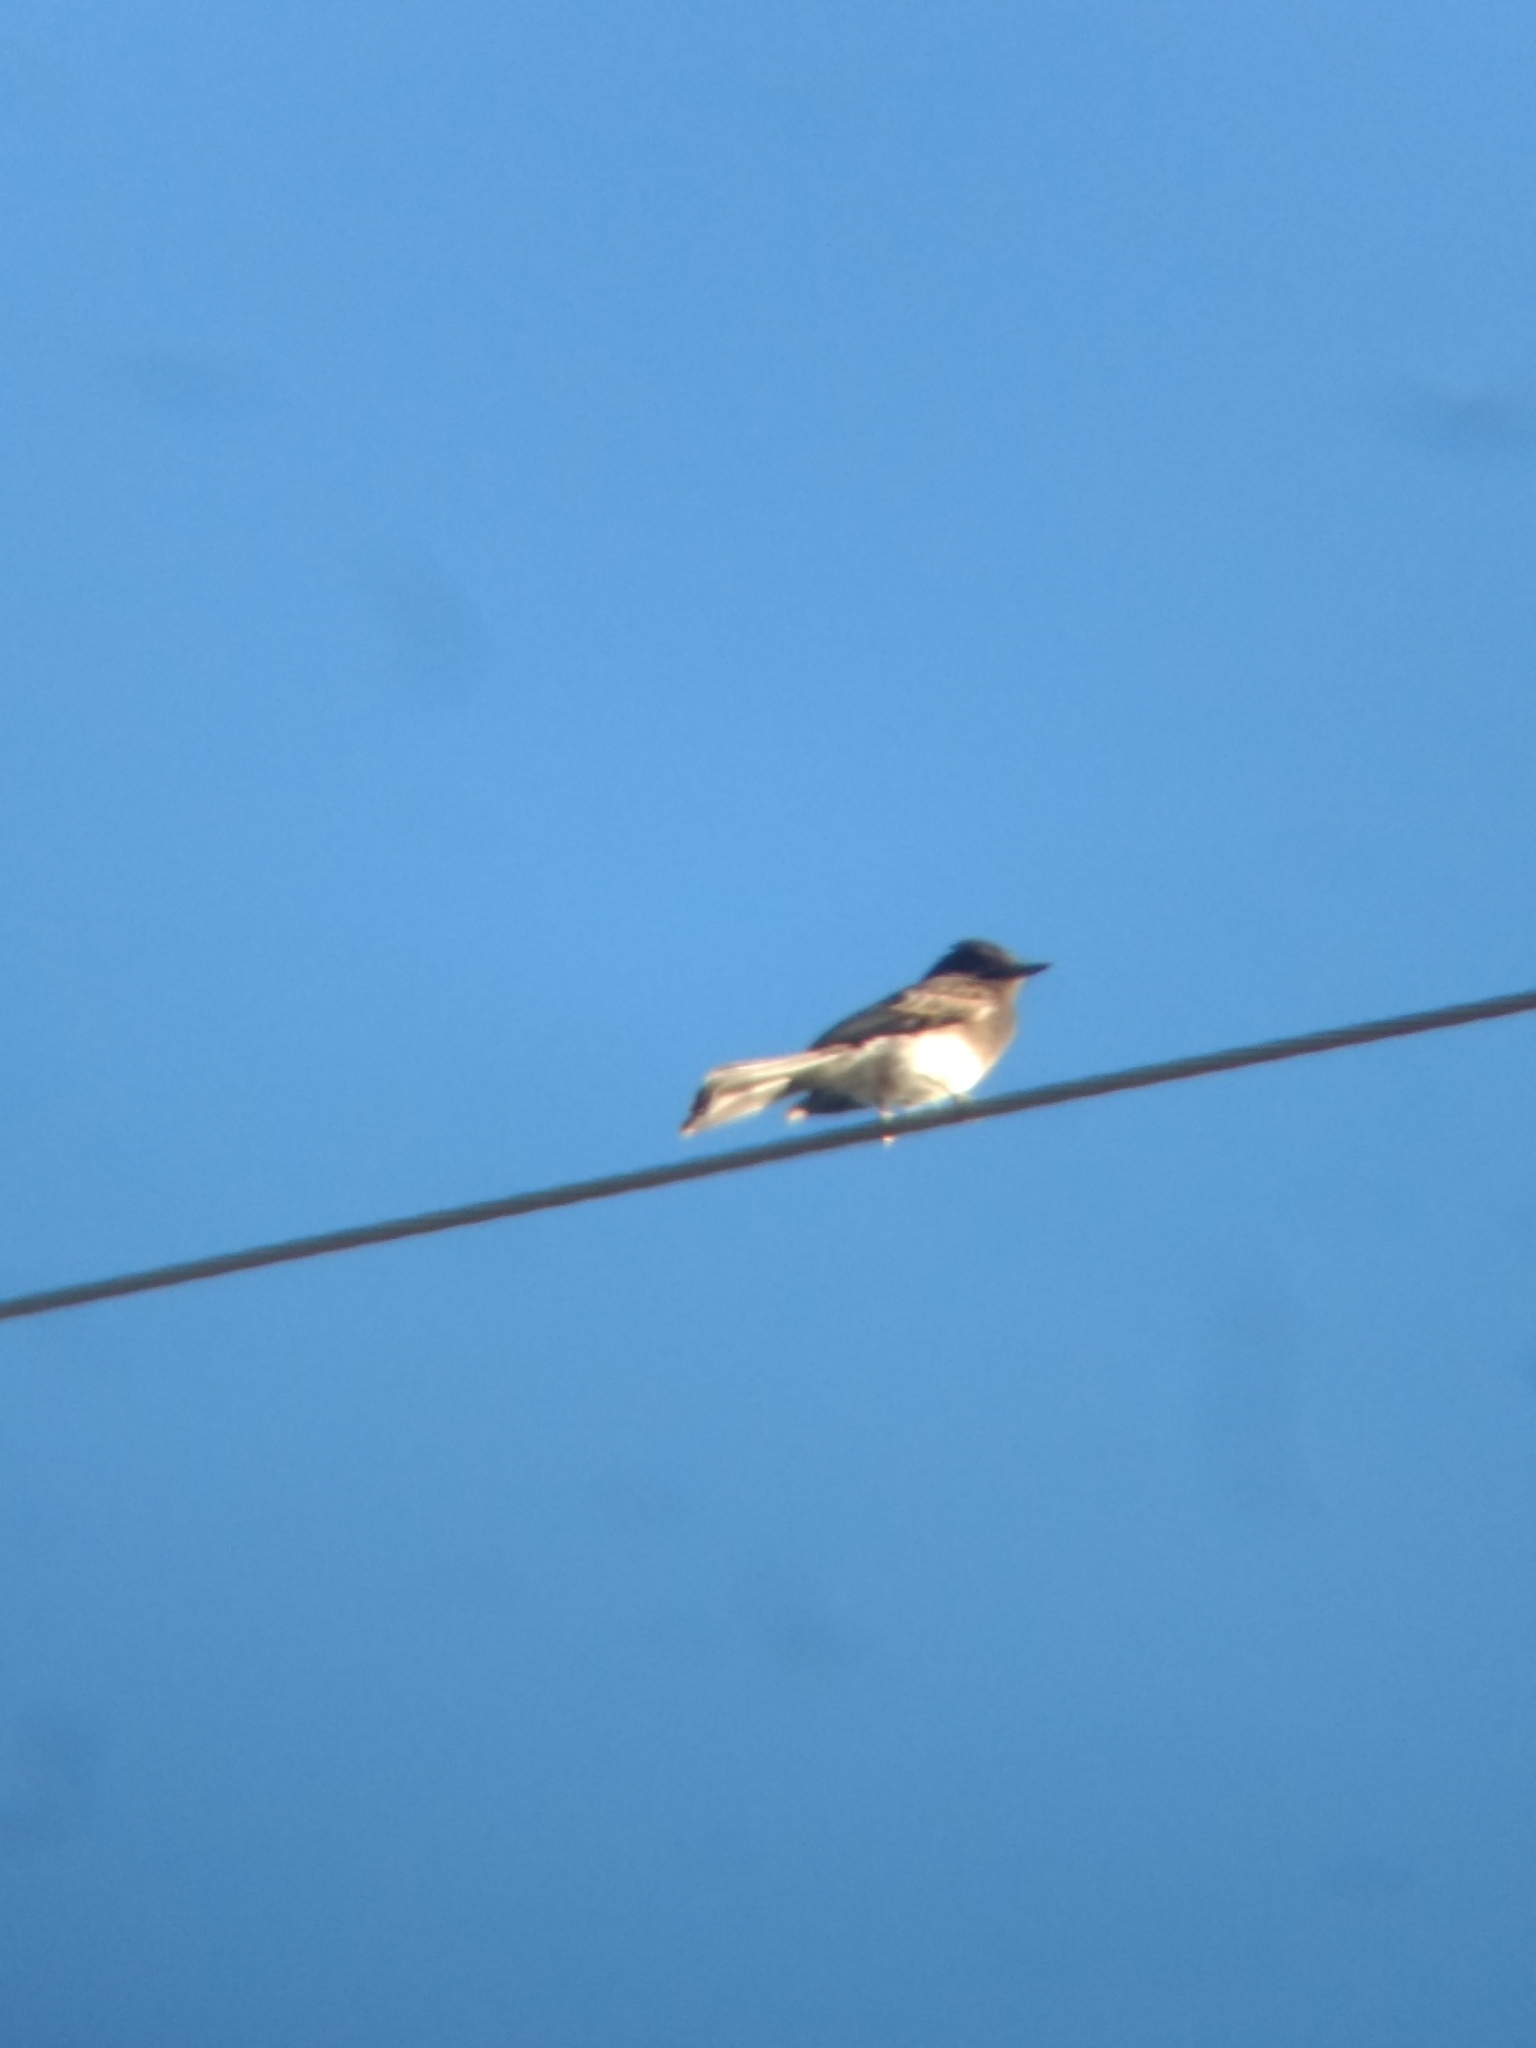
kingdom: Animalia
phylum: Chordata
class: Aves
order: Passeriformes
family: Tyrannidae
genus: Sayornis
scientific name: Sayornis nigricans
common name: Black phoebe
